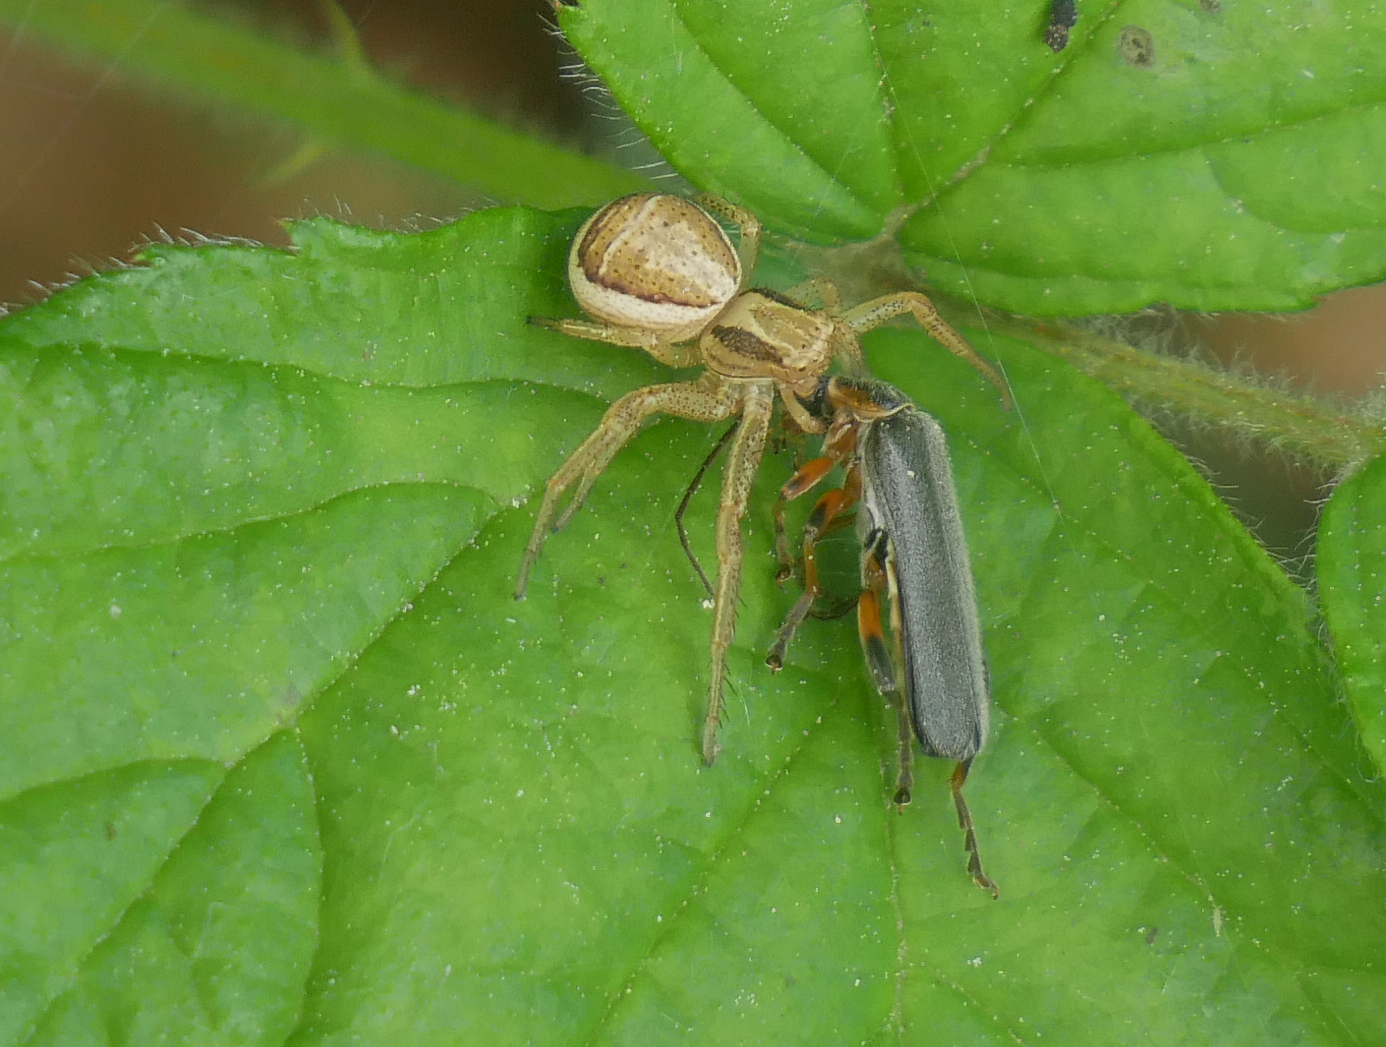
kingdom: Animalia
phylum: Arthropoda
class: Arachnida
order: Araneae
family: Thomisidae
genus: Xysticus
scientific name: Xysticus ulmi
